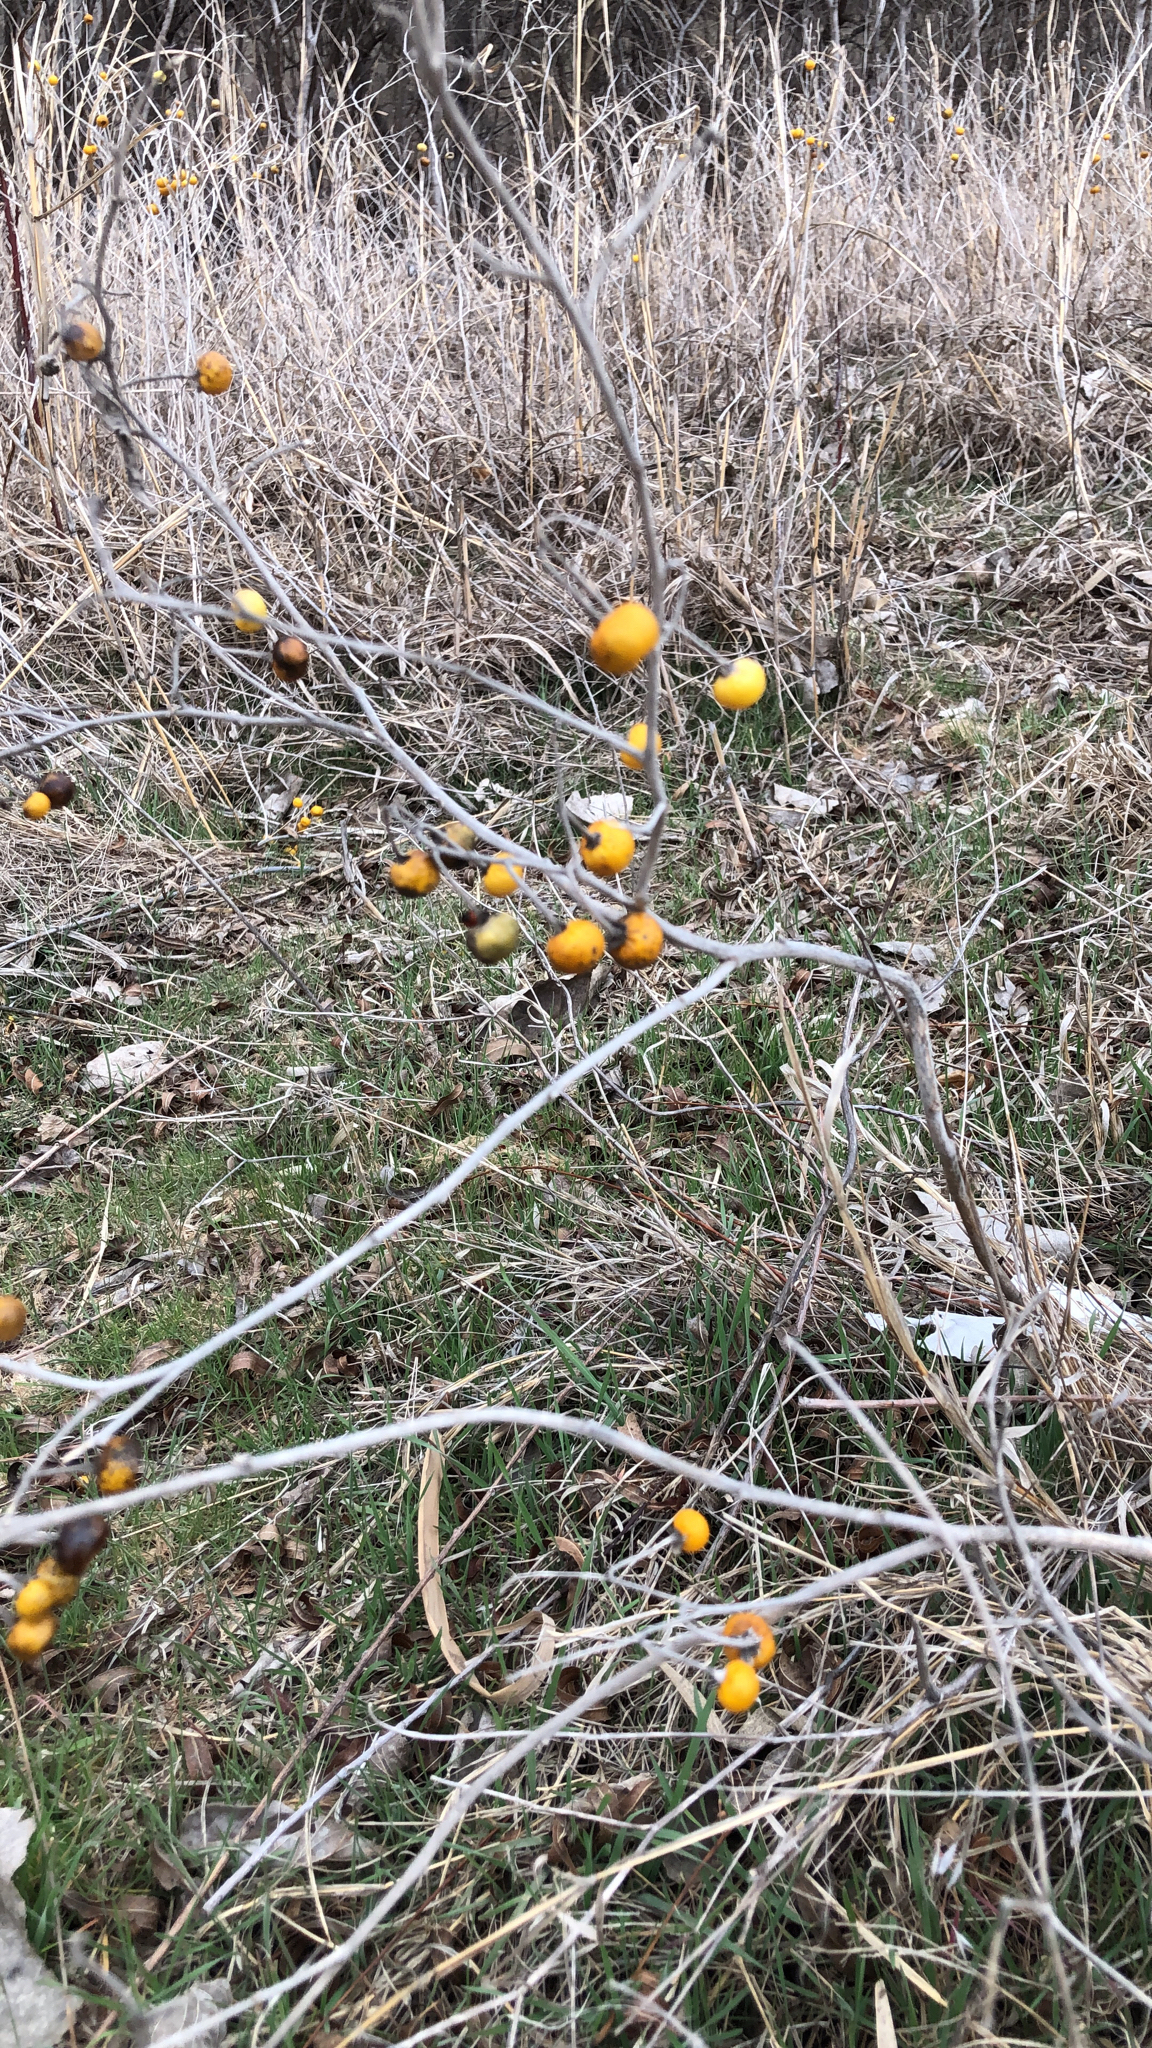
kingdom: Plantae
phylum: Tracheophyta
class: Magnoliopsida
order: Solanales
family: Solanaceae
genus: Solanum
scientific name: Solanum elaeagnifolium
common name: Silverleaf nightshade
